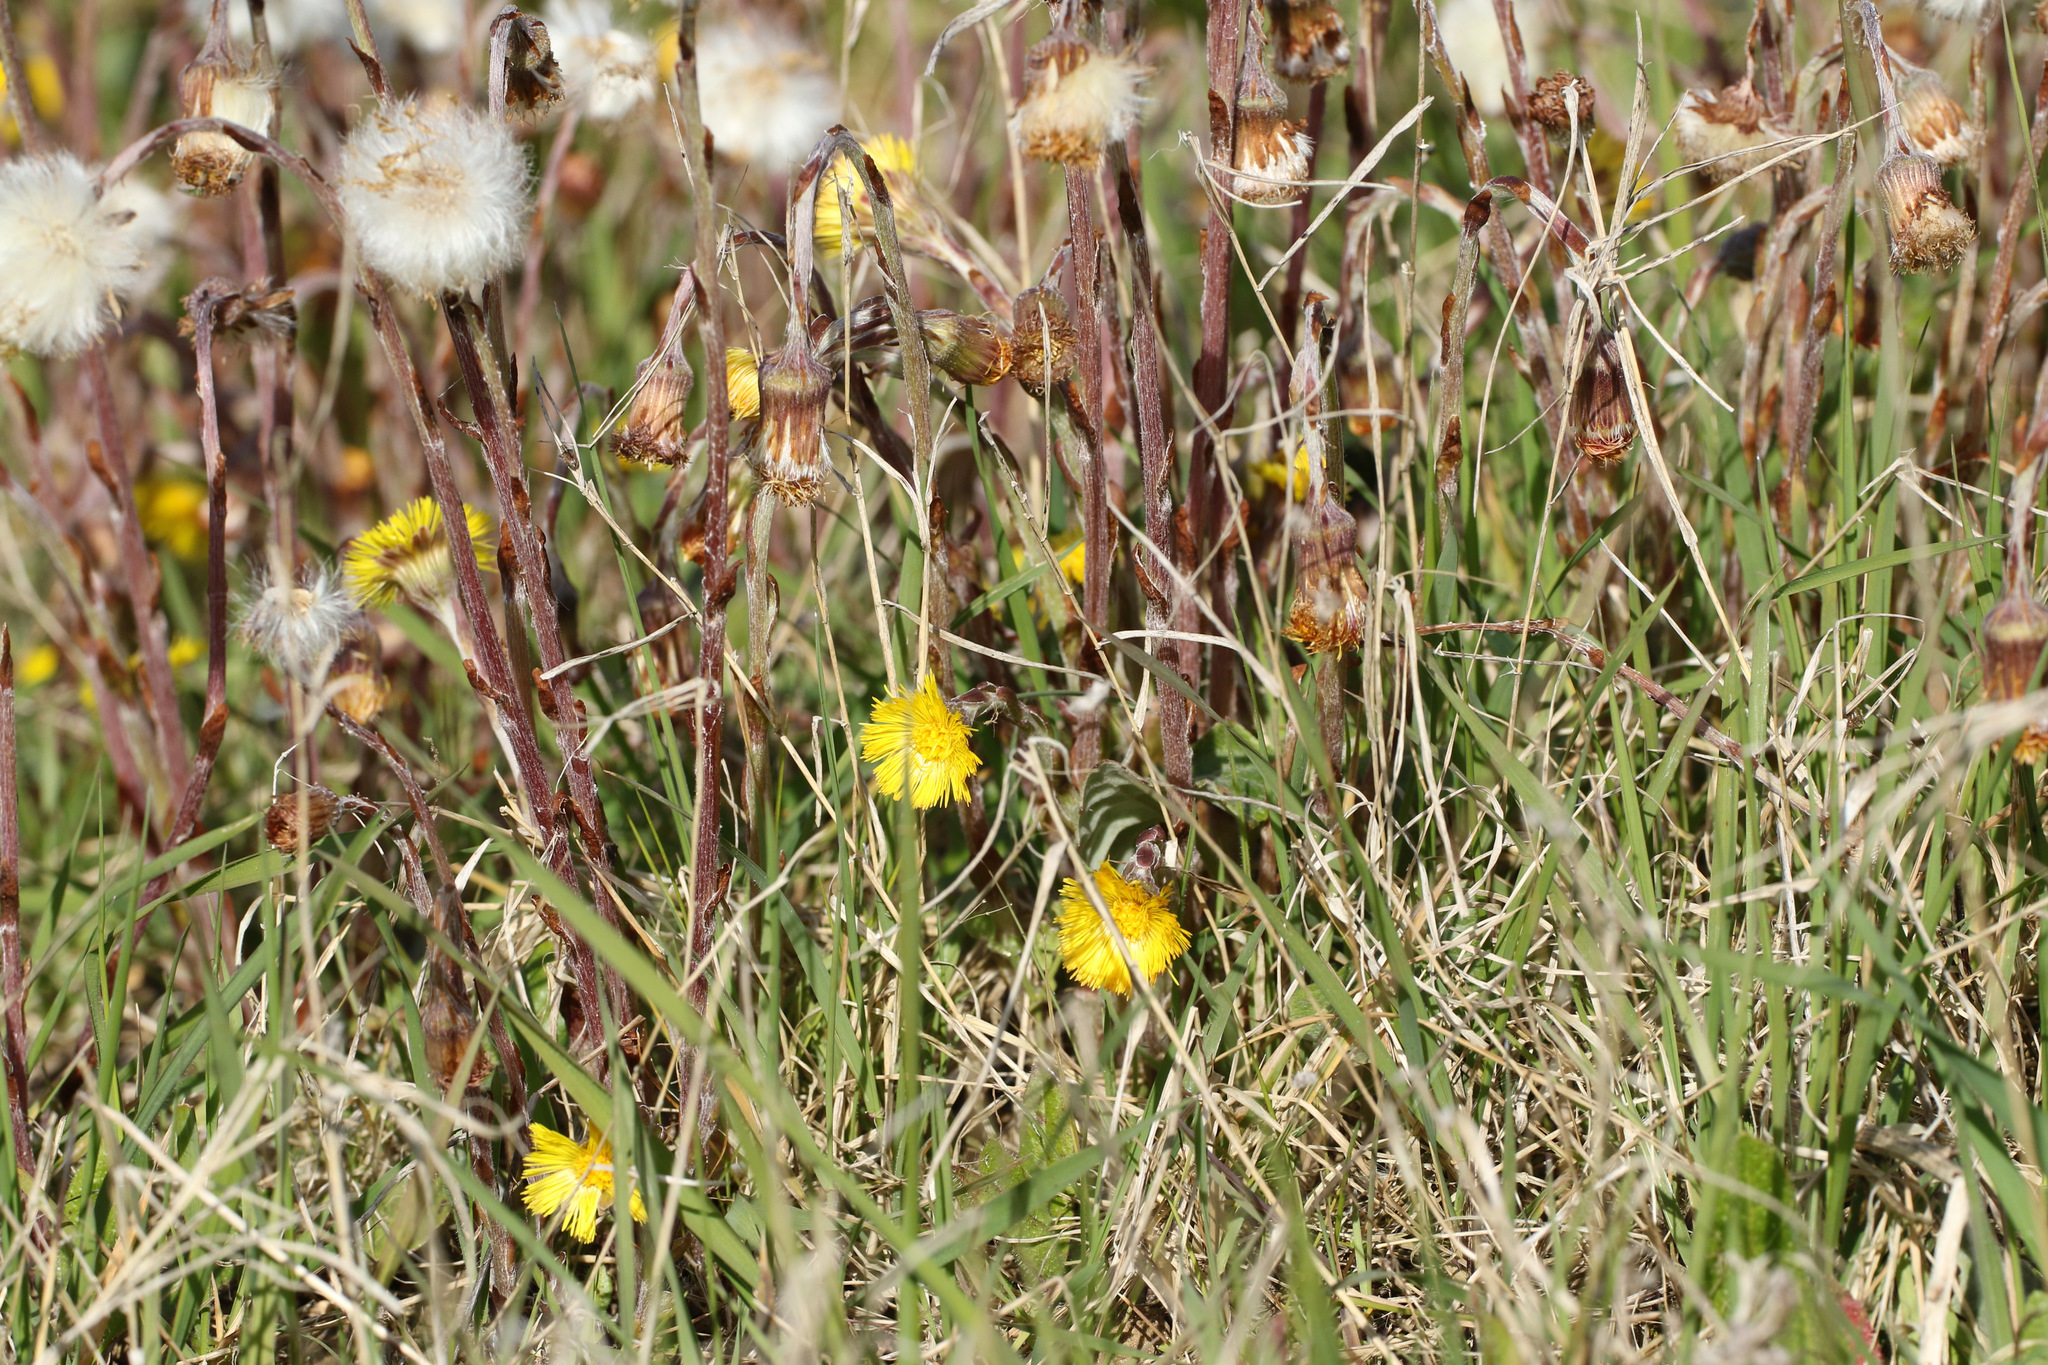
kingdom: Plantae
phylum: Tracheophyta
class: Magnoliopsida
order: Asterales
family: Asteraceae
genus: Tussilago
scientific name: Tussilago farfara
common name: Coltsfoot
